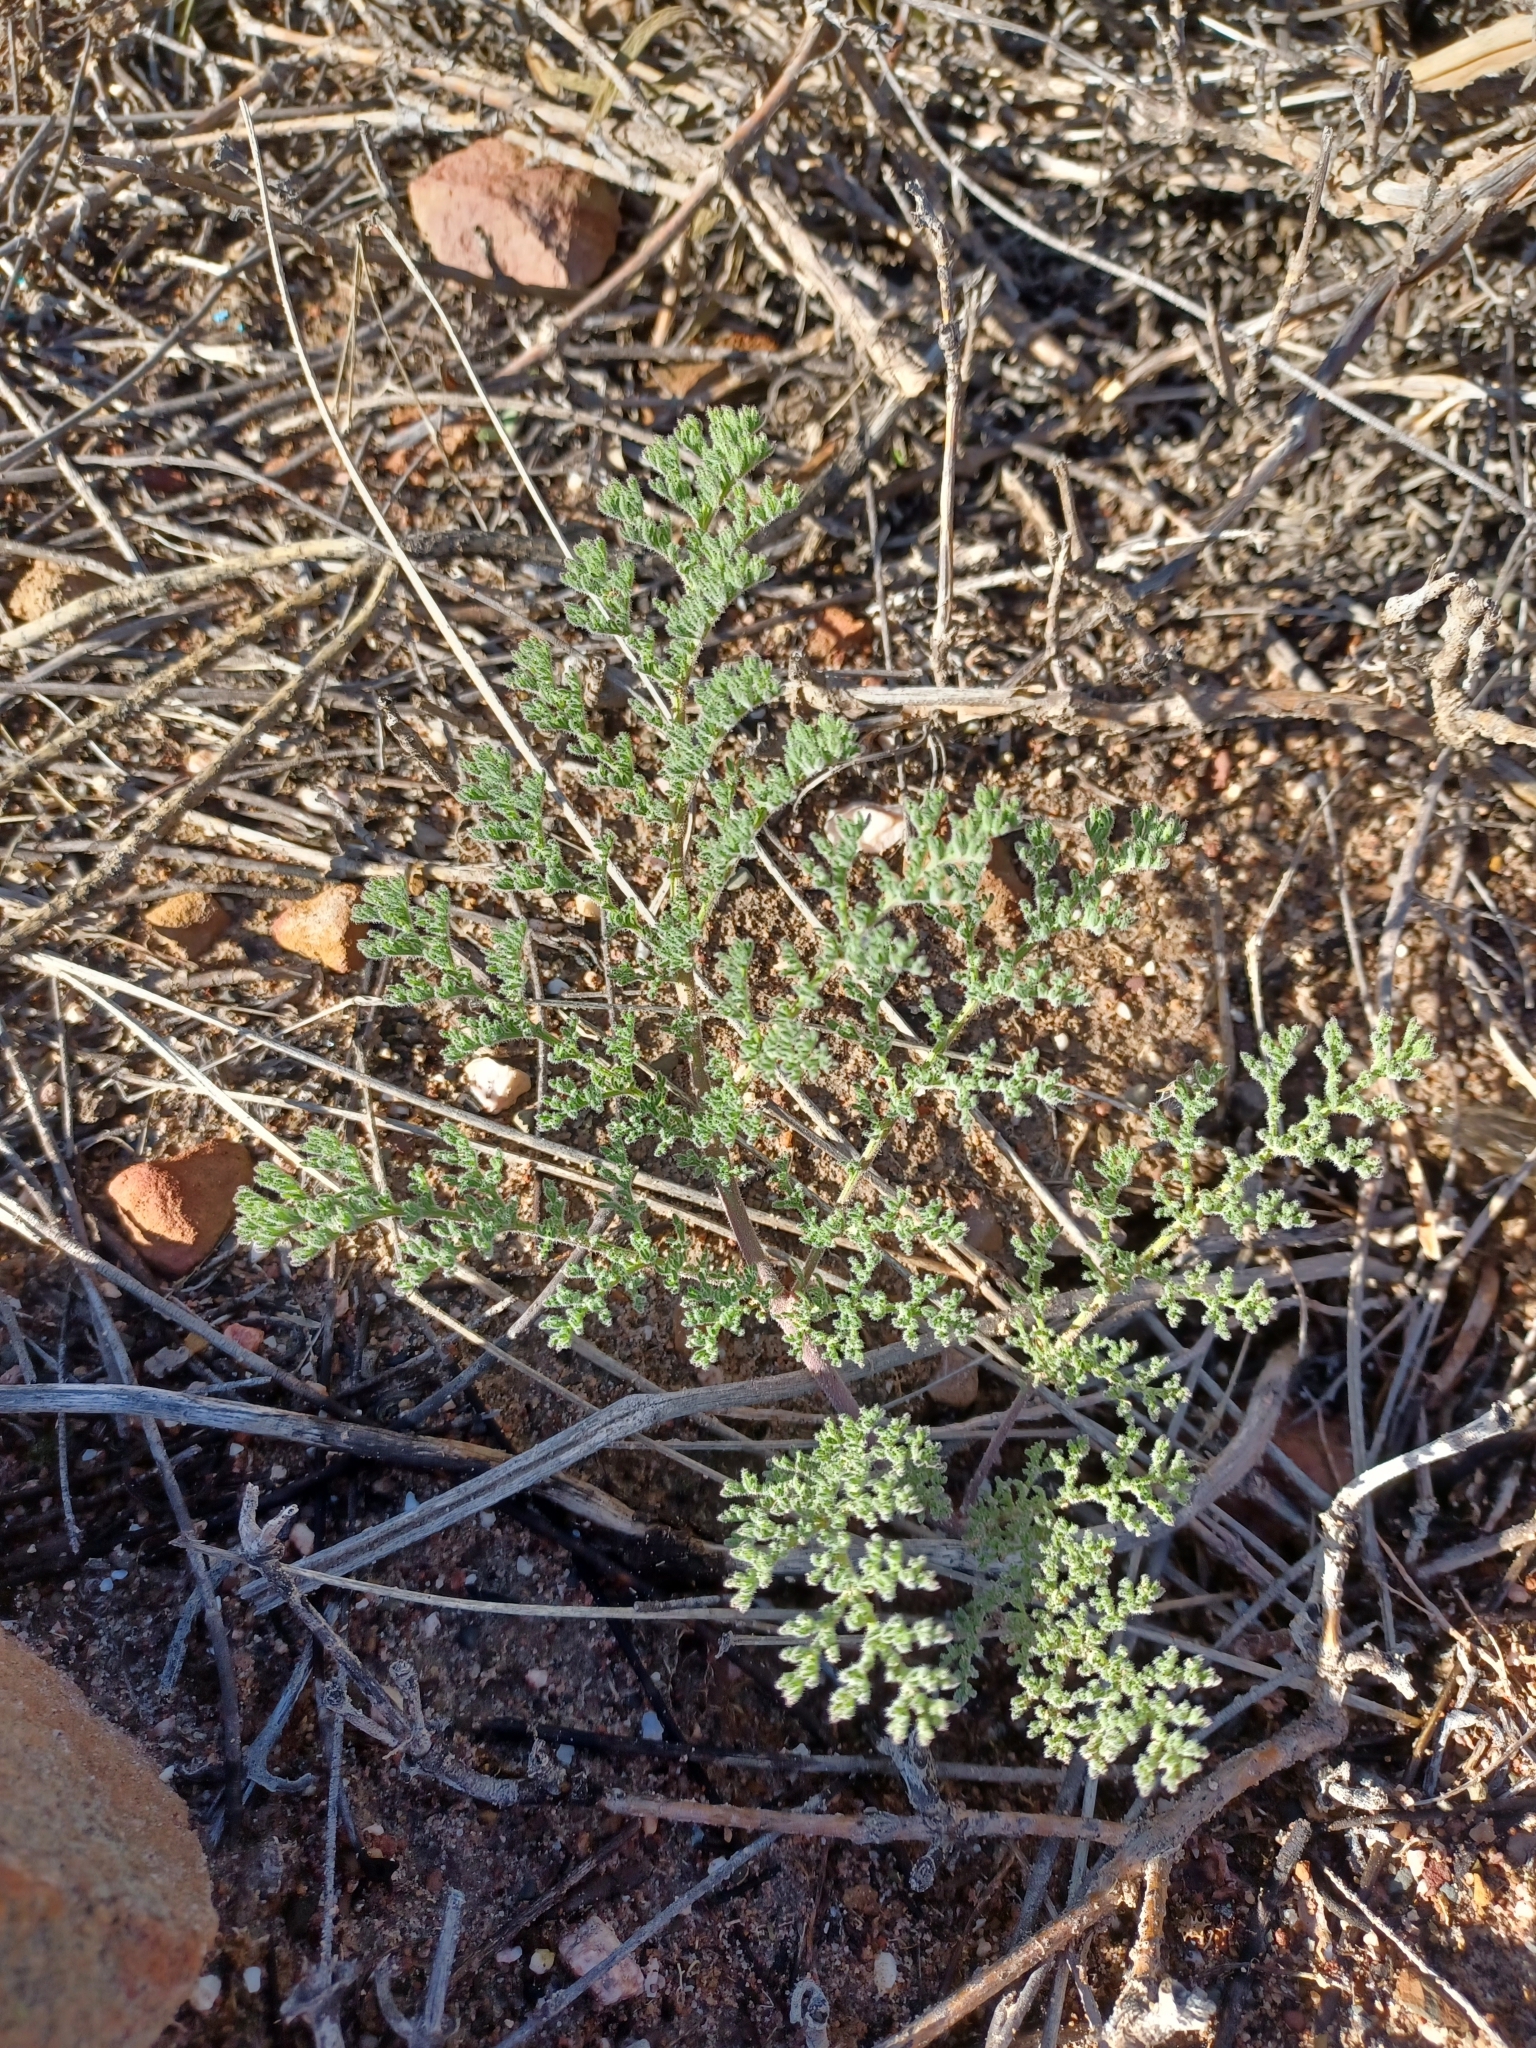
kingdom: Plantae
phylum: Tracheophyta
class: Magnoliopsida
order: Geraniales
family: Geraniaceae
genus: Pelargonium
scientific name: Pelargonium triste
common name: Night-scent pelargonium
